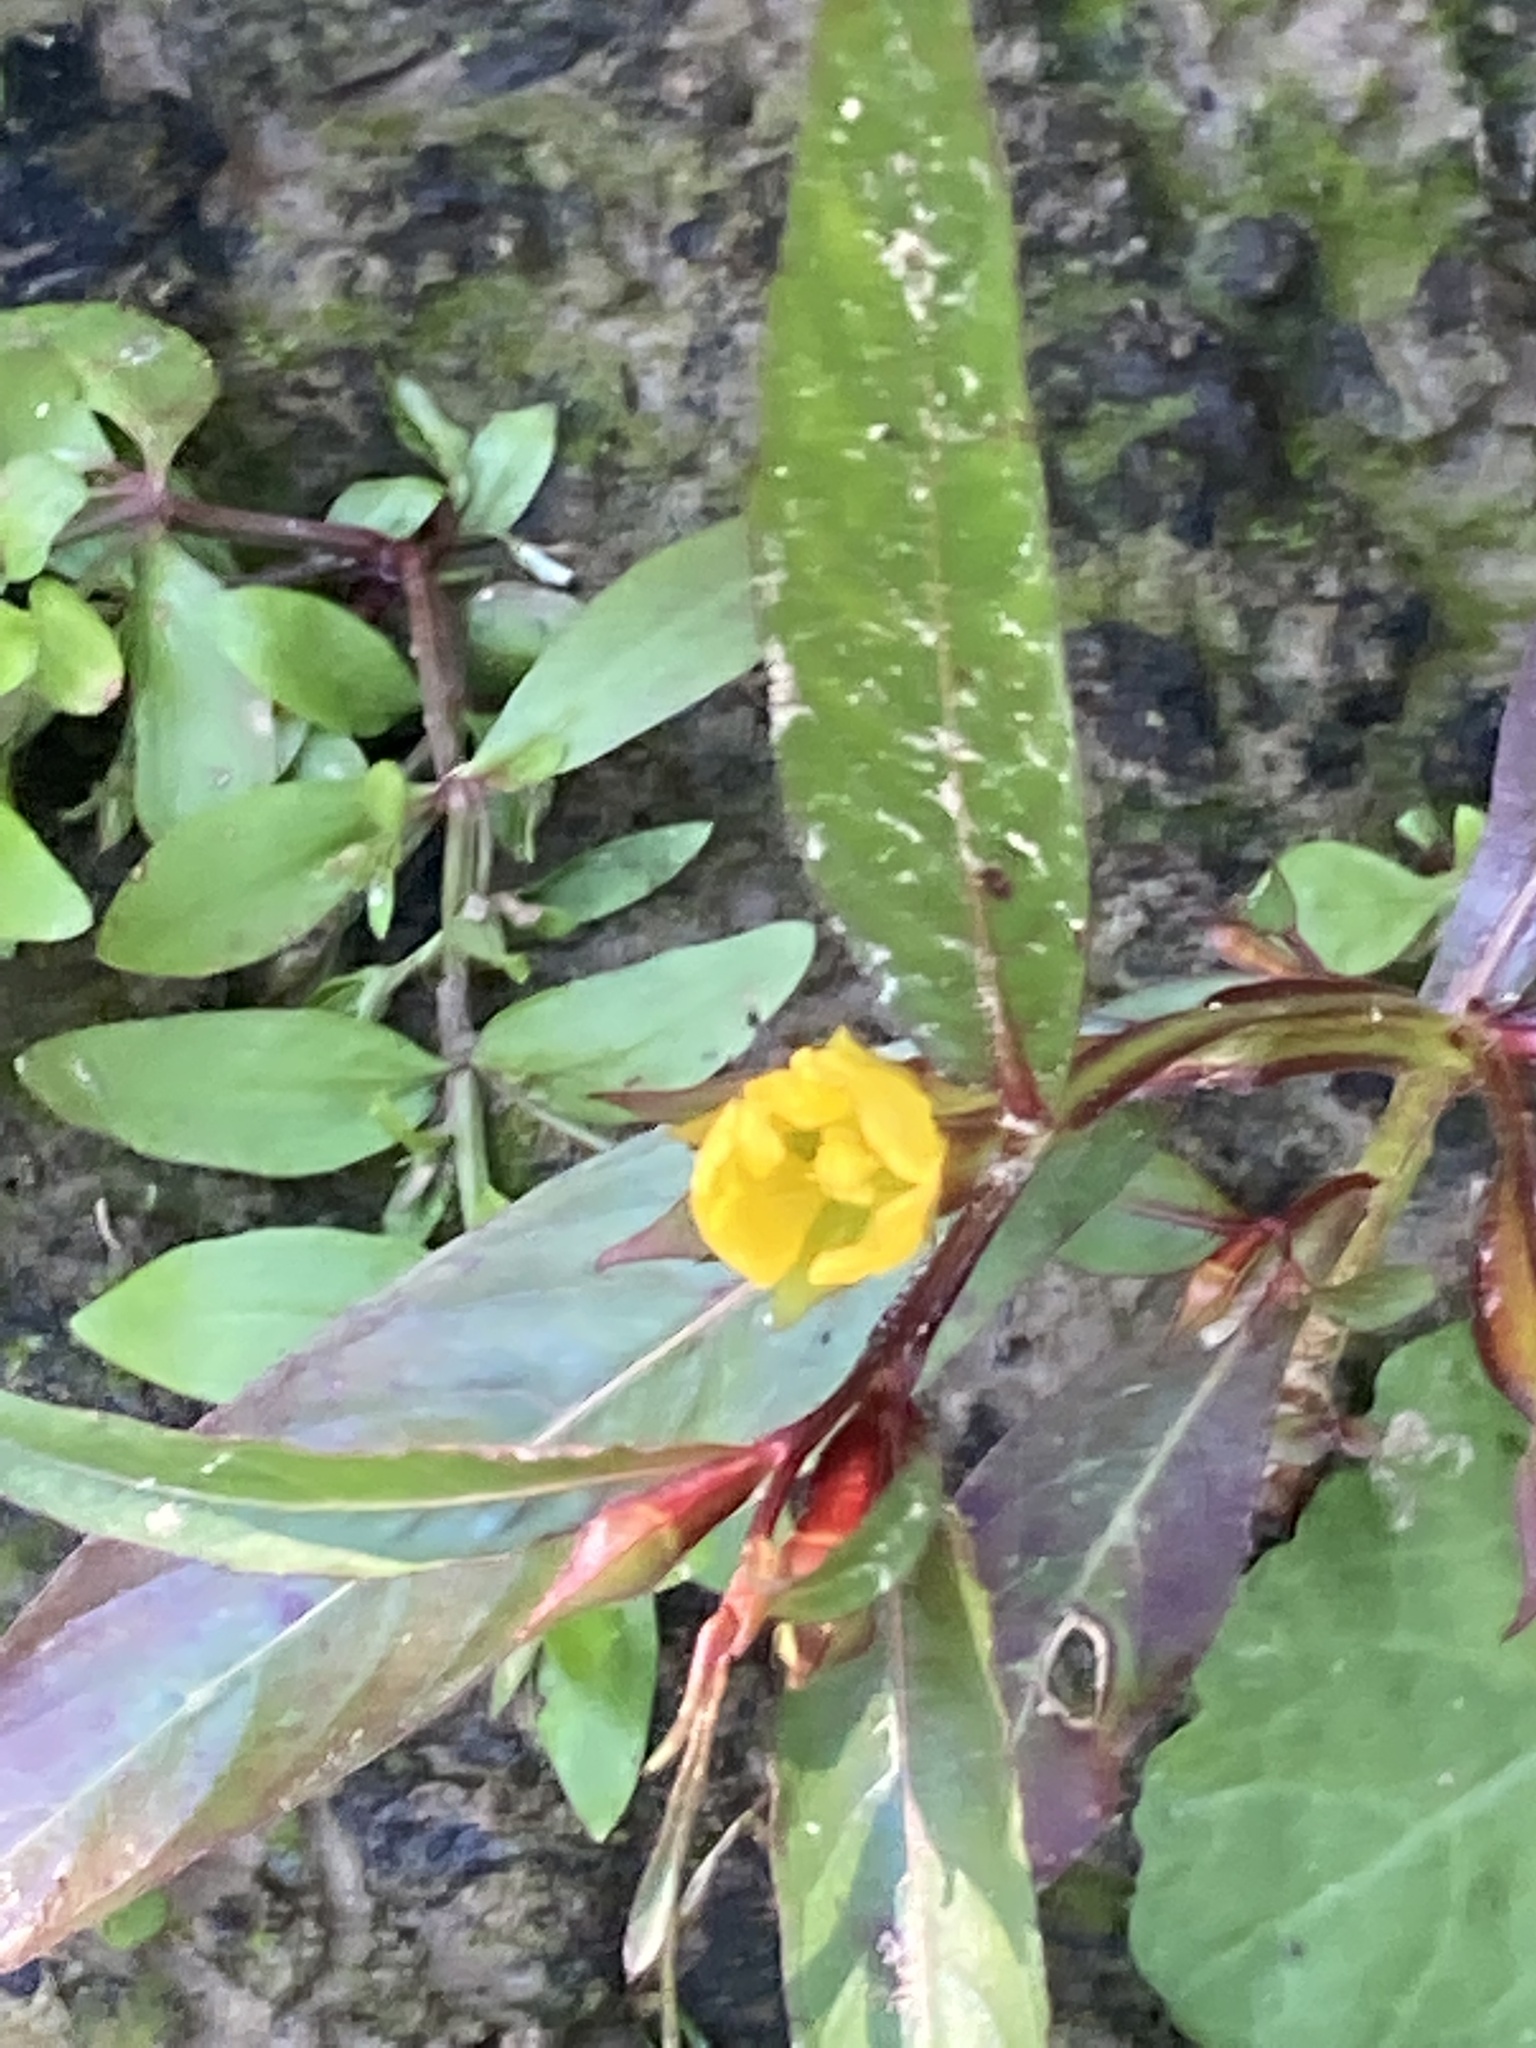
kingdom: Plantae
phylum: Tracheophyta
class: Magnoliopsida
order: Myrtales
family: Onagraceae
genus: Ludwigia
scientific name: Ludwigia decurrens
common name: Winged water-primrose
